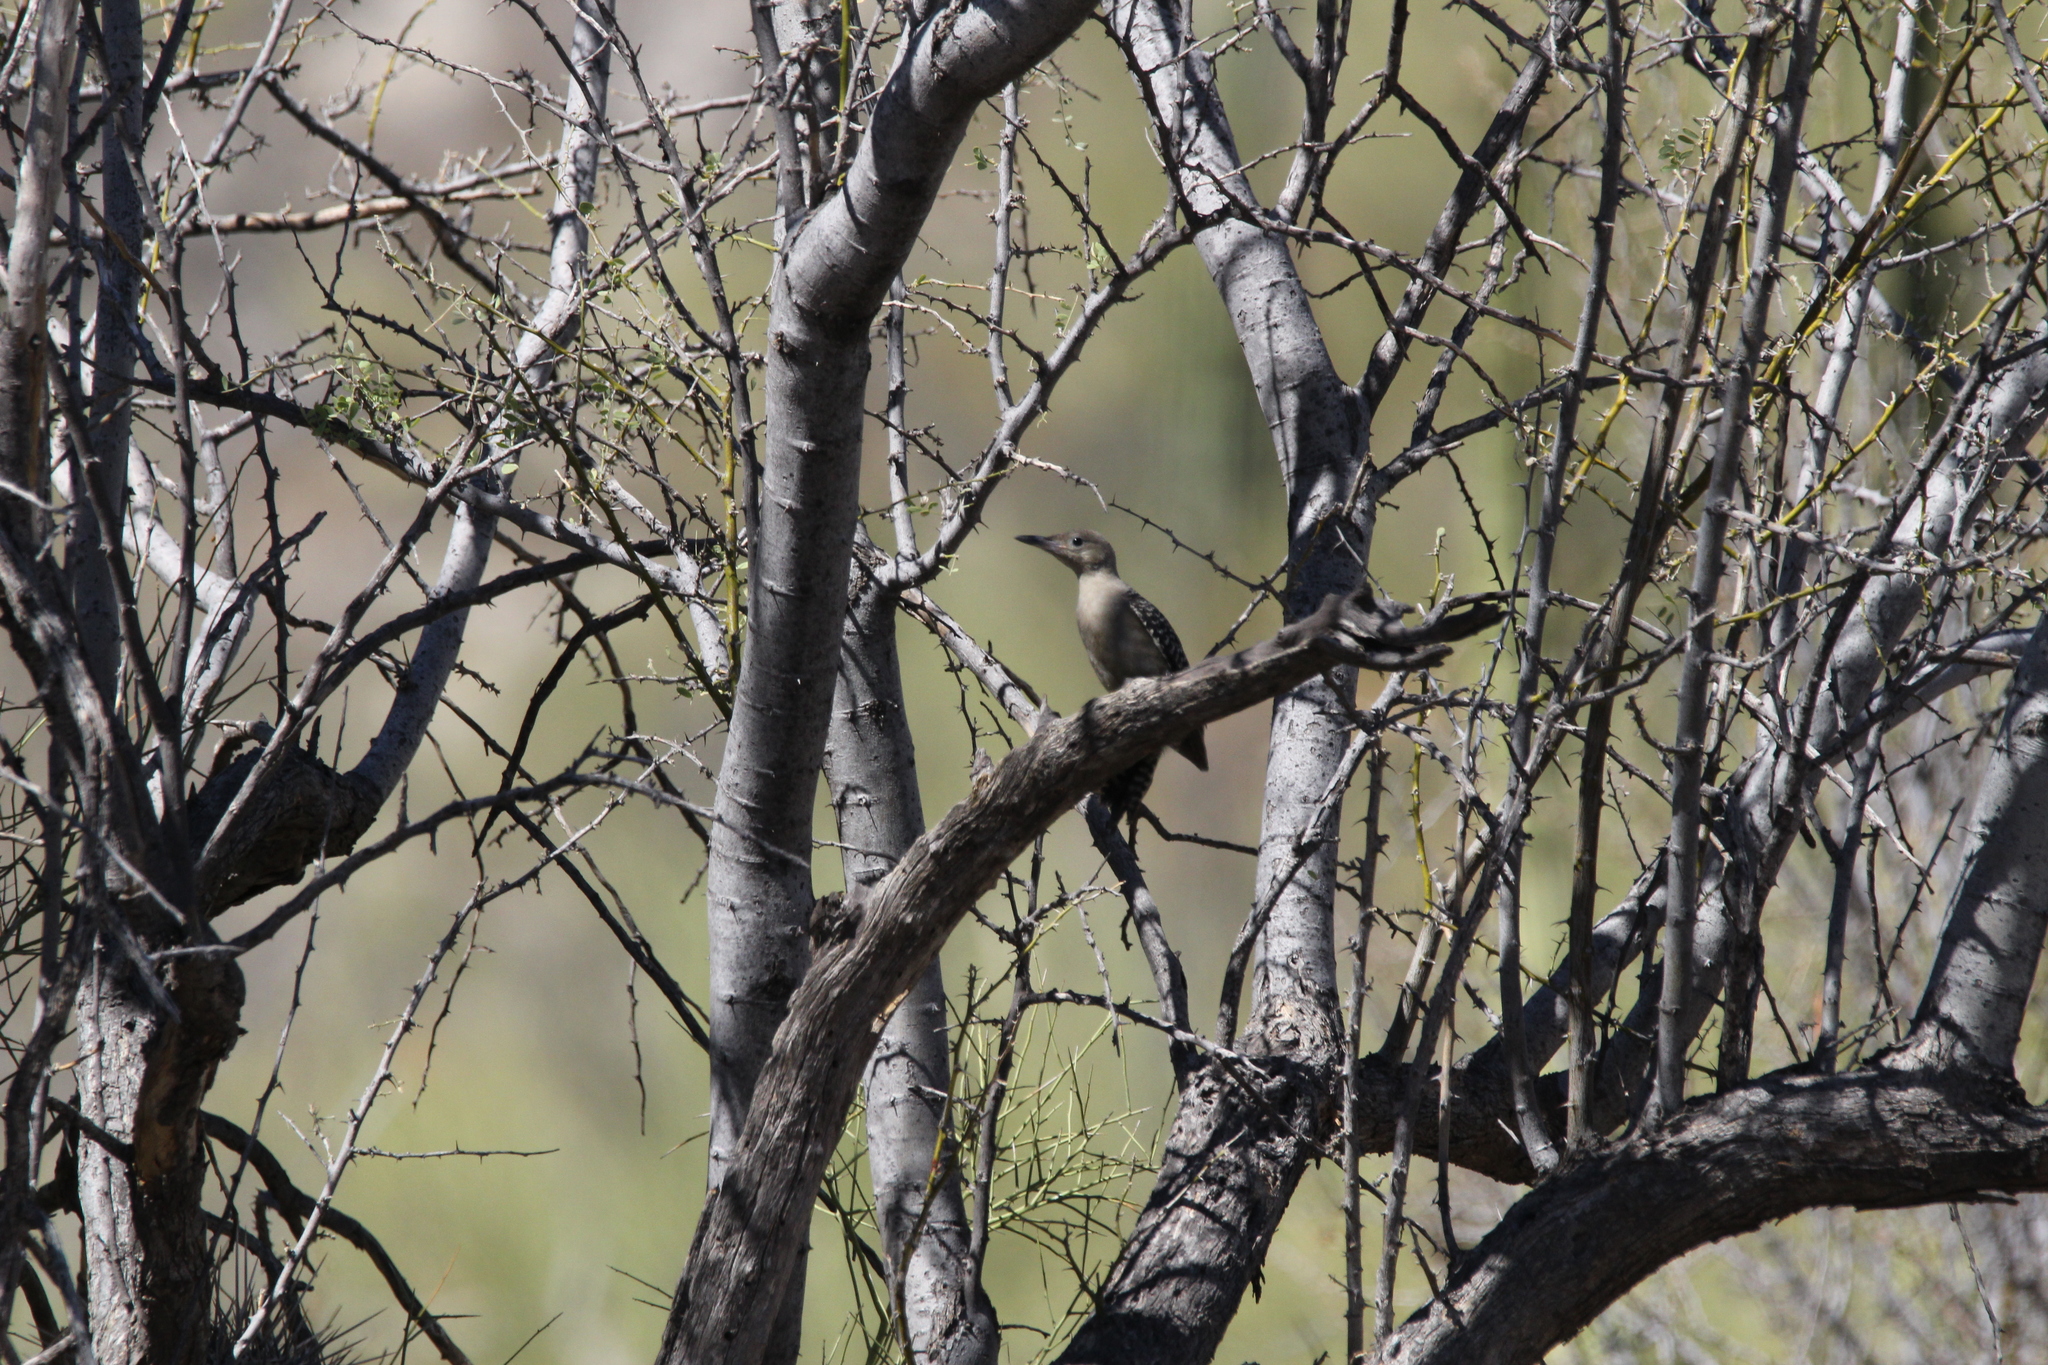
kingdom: Animalia
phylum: Chordata
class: Aves
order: Piciformes
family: Picidae
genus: Melanerpes
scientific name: Melanerpes uropygialis
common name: Gila woodpecker
